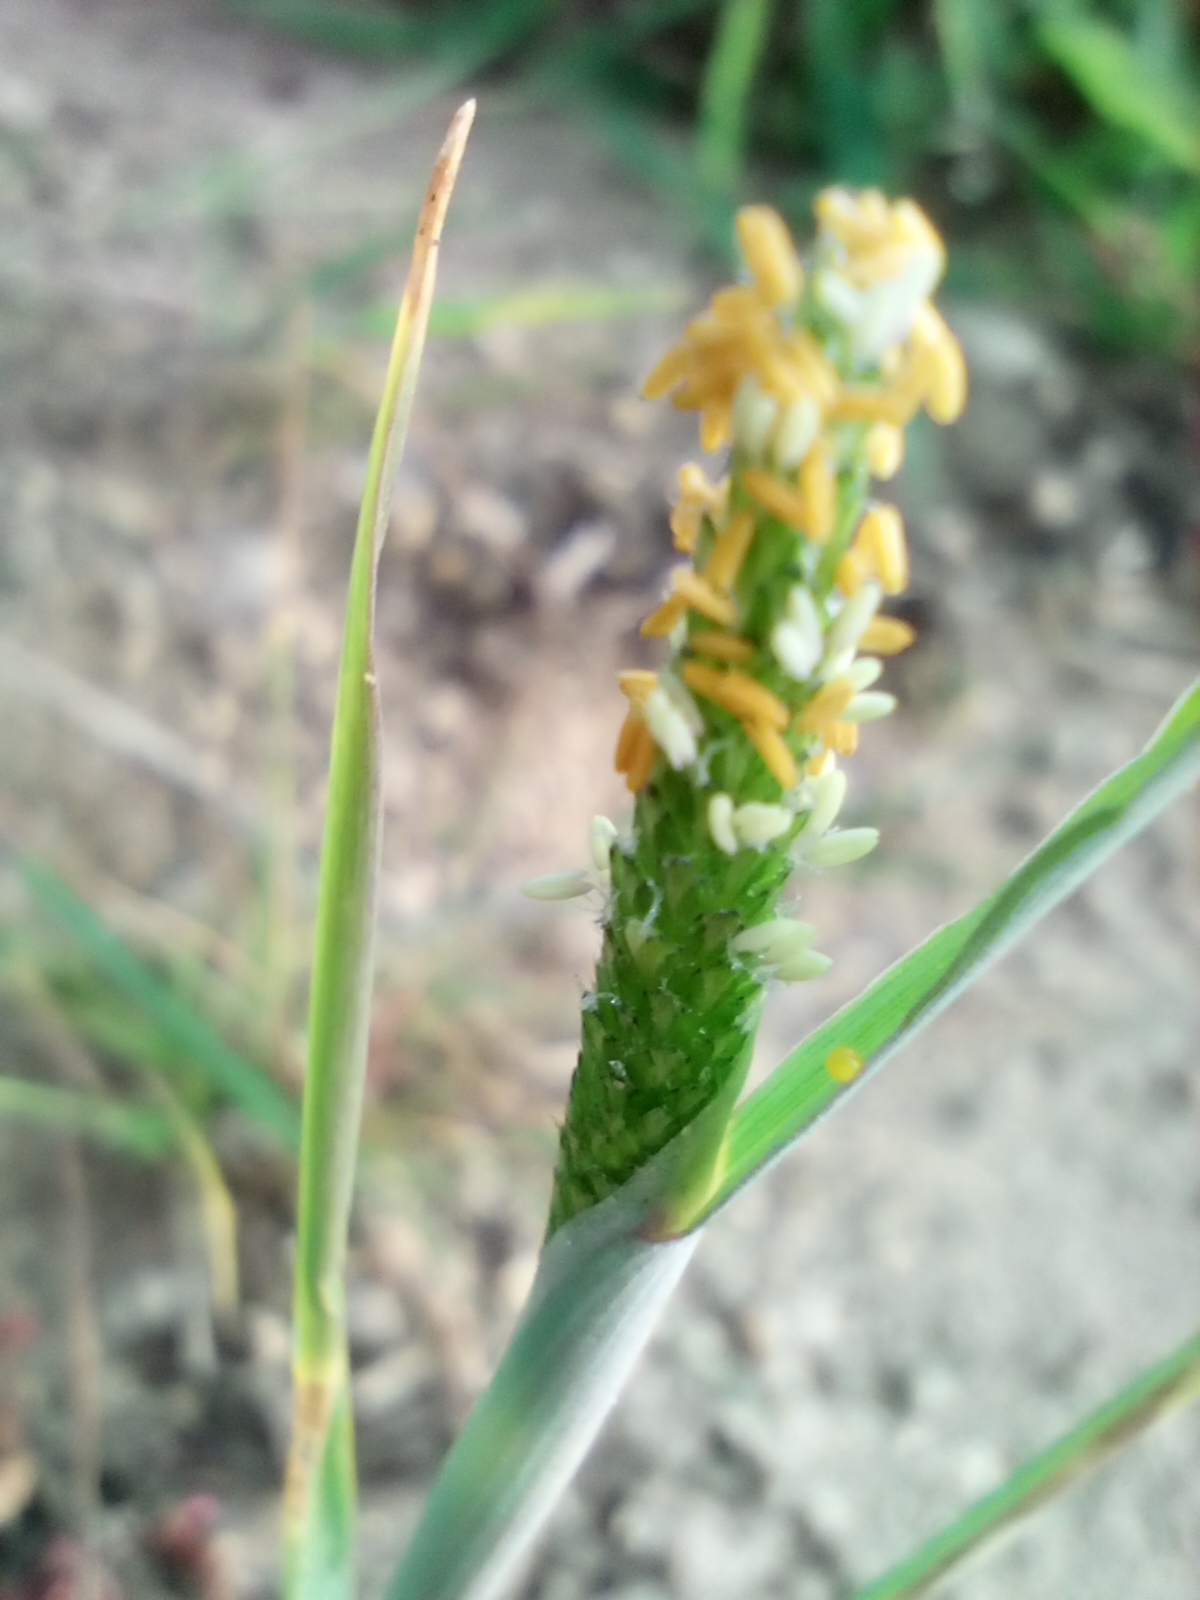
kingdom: Plantae
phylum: Tracheophyta
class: Liliopsida
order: Poales
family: Poaceae
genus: Alopecurus
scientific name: Alopecurus aequalis
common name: Orange foxtail
